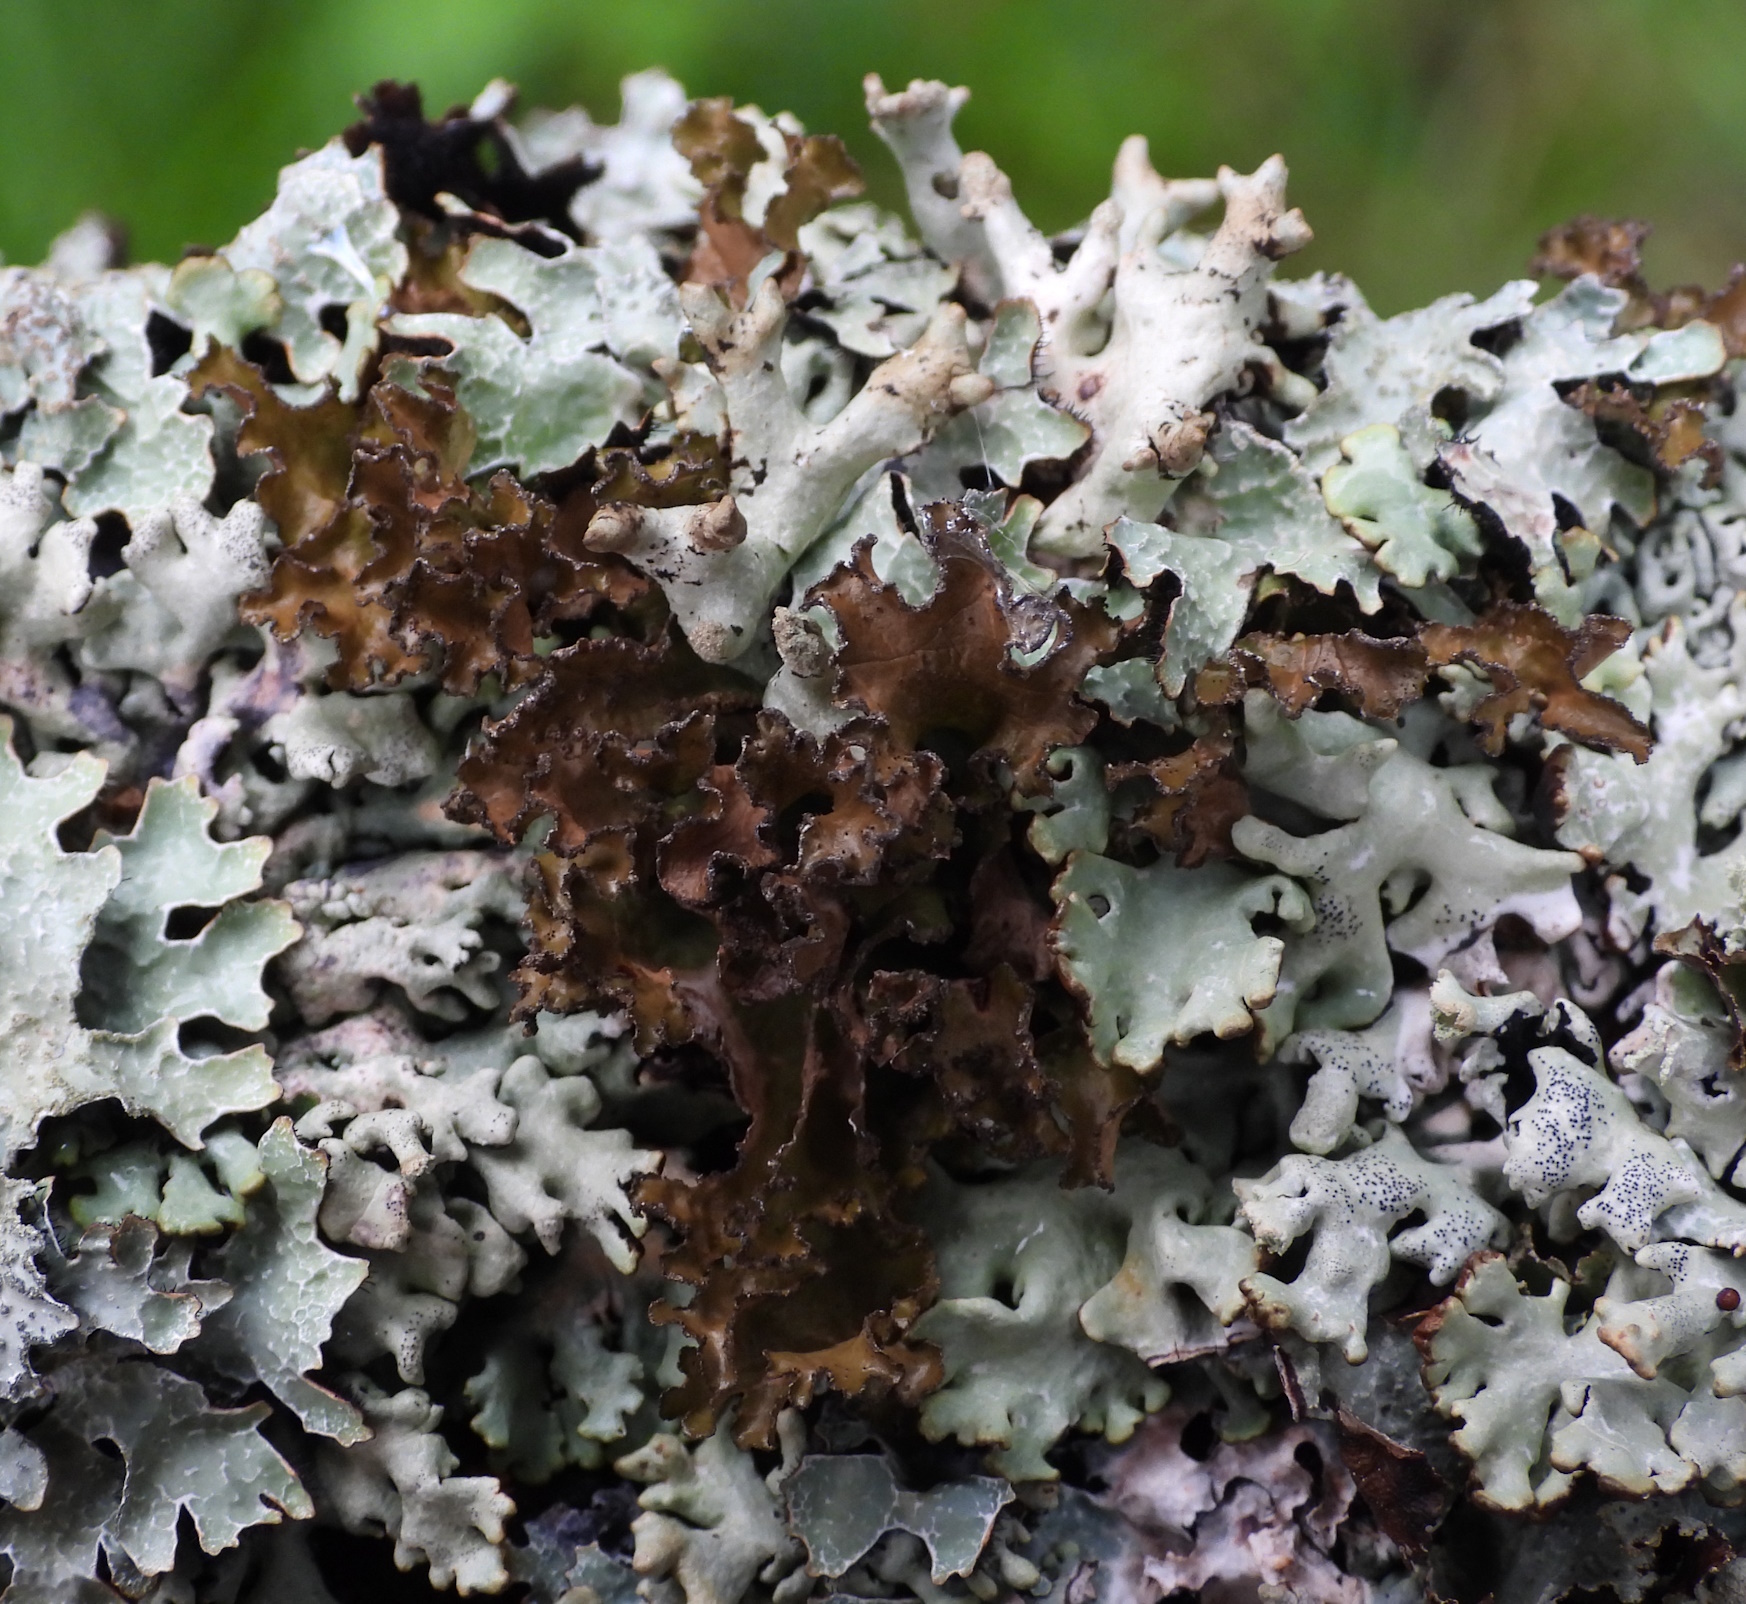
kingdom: Fungi
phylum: Ascomycota
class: Lecanoromycetes
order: Lecanorales
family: Parmeliaceae
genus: Nephromopsis
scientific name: Nephromopsis chlorophylla
